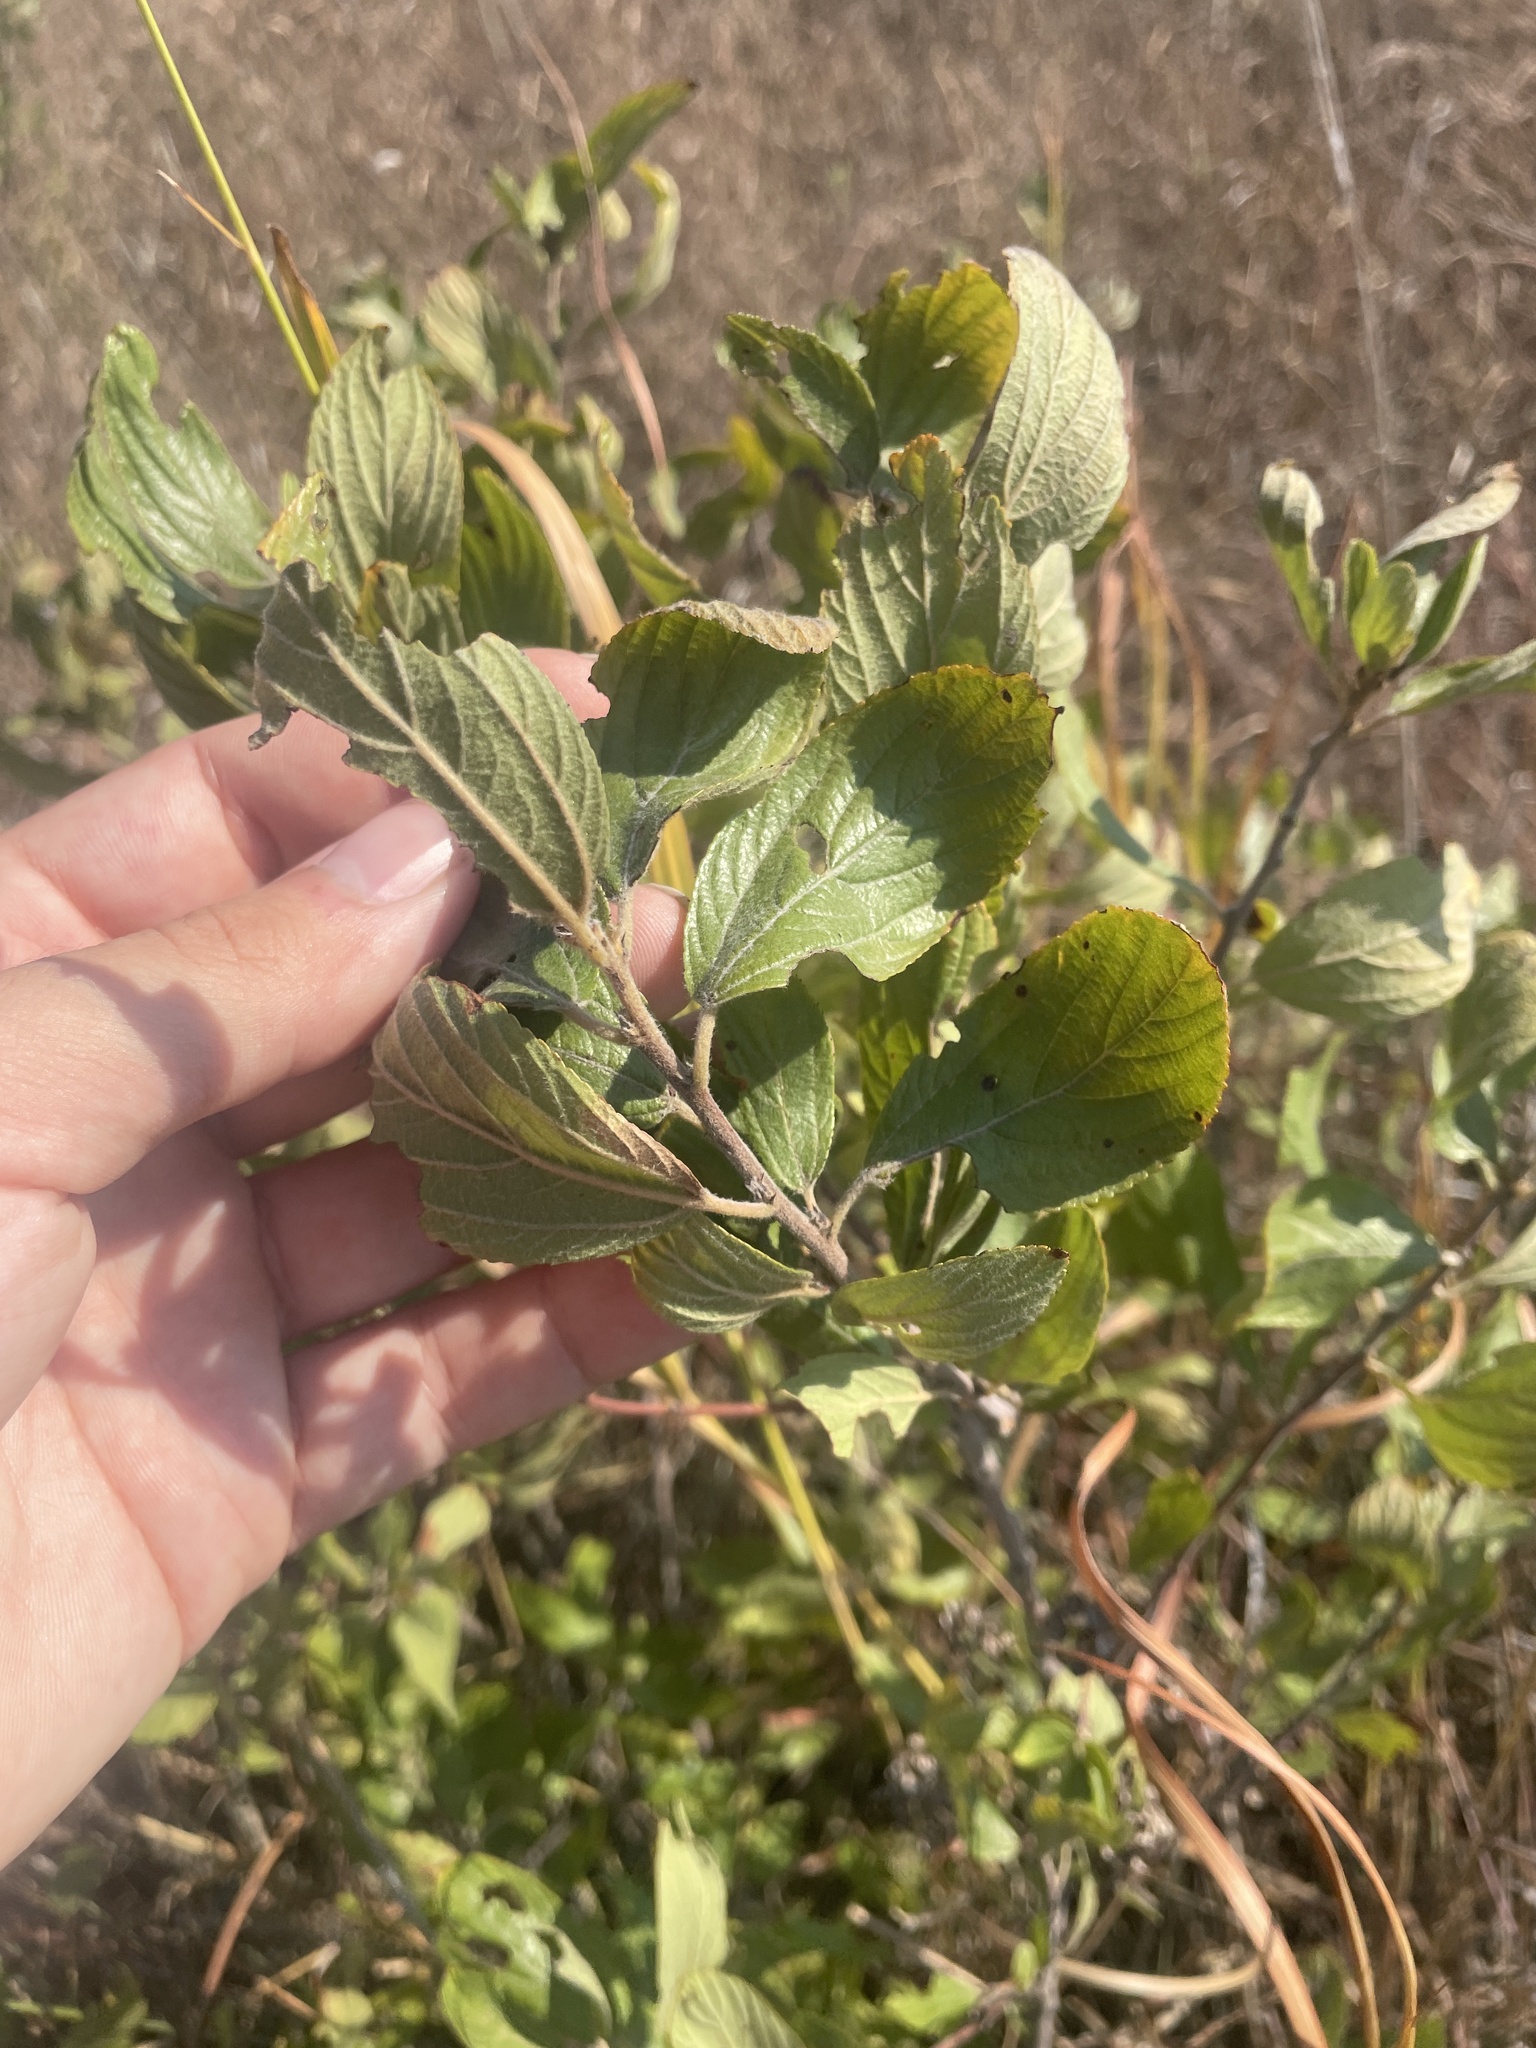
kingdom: Plantae
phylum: Tracheophyta
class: Magnoliopsida
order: Rosales
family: Rhamnaceae
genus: Ceanothus
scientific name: Ceanothus herbaceus
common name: Inland ceanothus
